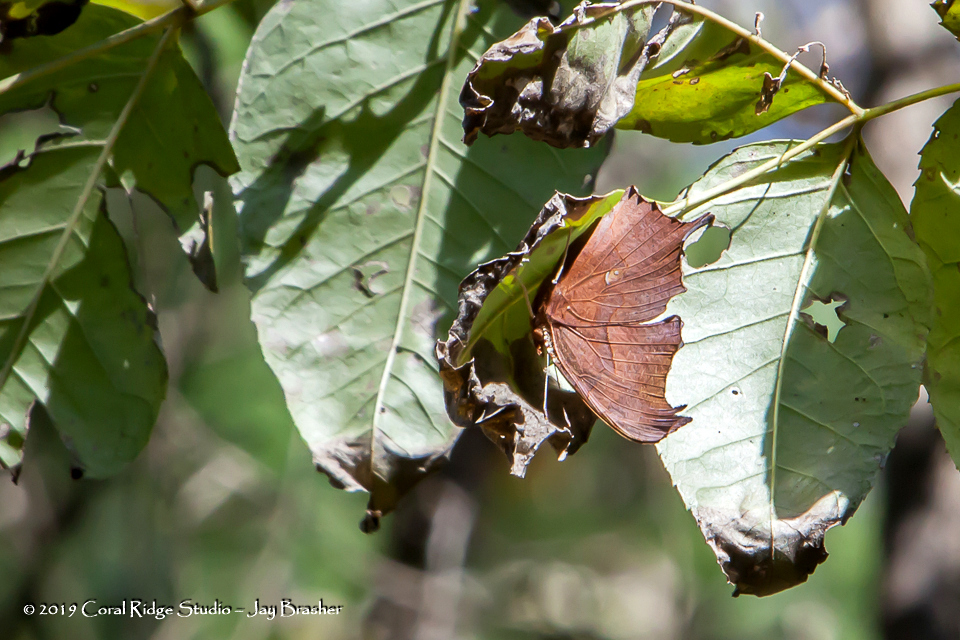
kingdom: Animalia
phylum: Arthropoda
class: Insecta
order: Lepidoptera
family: Nymphalidae
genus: Polygonia
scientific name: Polygonia interrogationis
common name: Question mark
